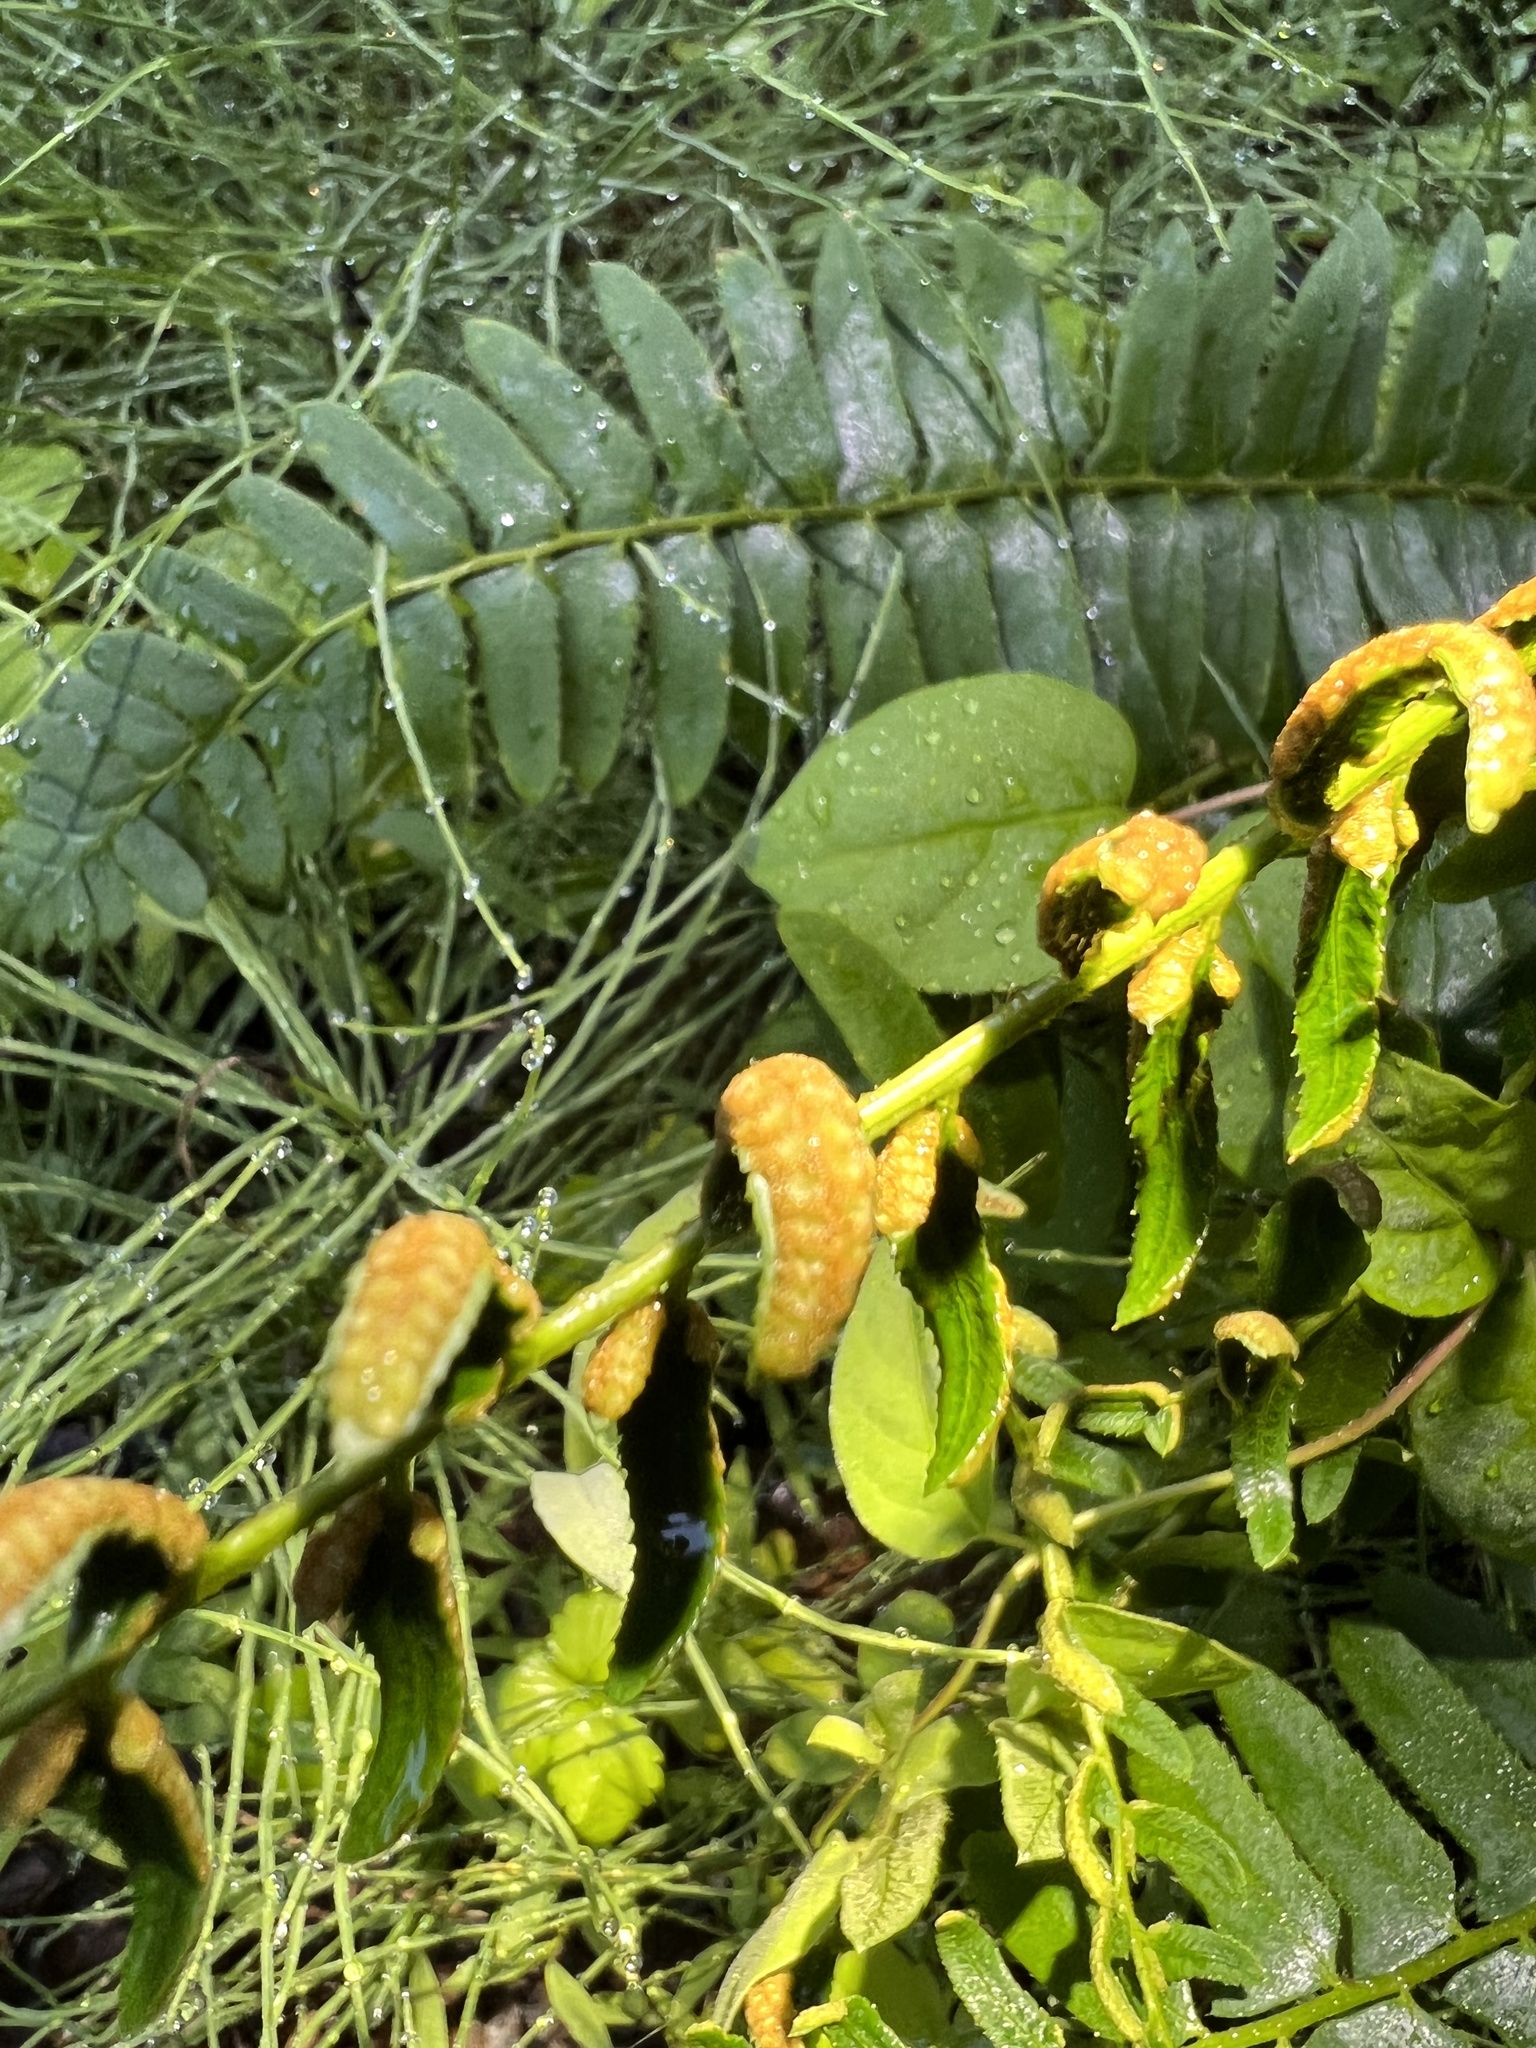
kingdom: Plantae
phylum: Tracheophyta
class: Polypodiopsida
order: Polypodiales
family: Dryopteridaceae
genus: Polystichum
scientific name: Polystichum acrostichoides
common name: Christmas fern
